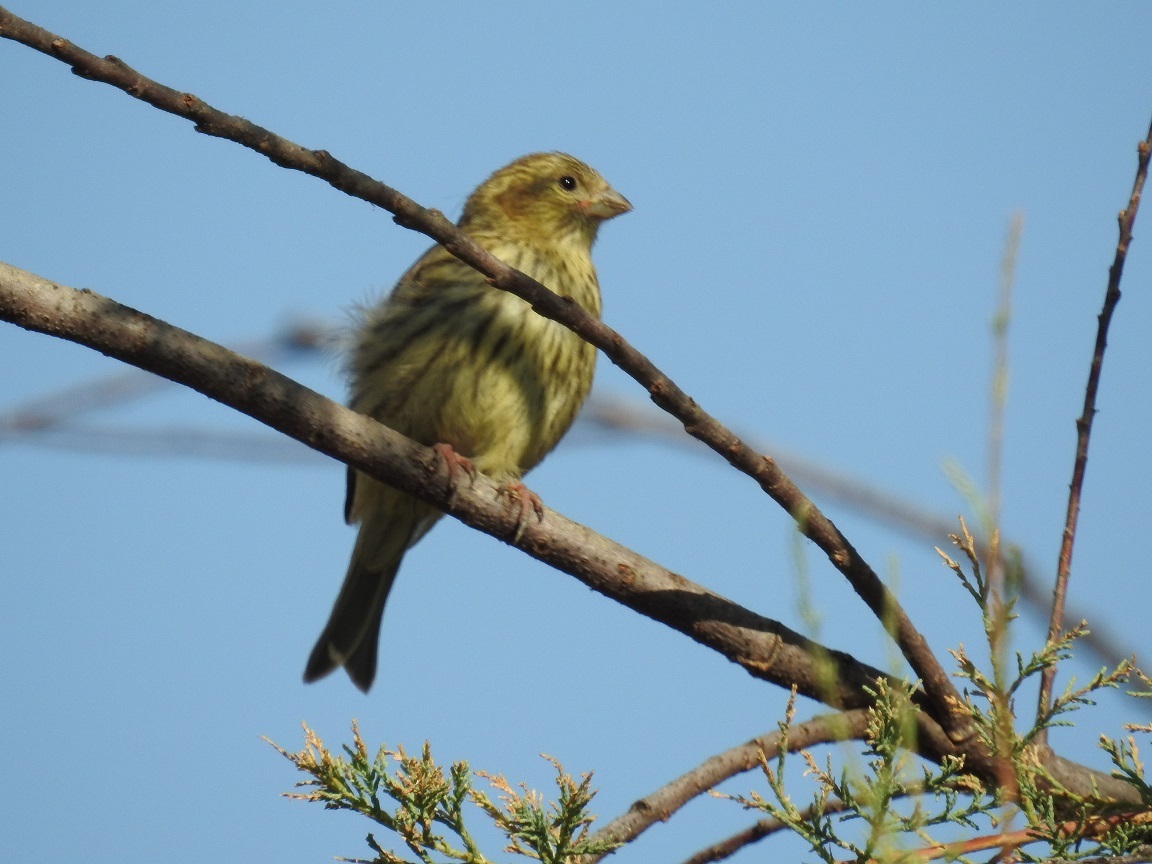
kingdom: Animalia
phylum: Chordata
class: Aves
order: Passeriformes
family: Fringillidae
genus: Serinus
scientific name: Serinus serinus
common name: European serin
